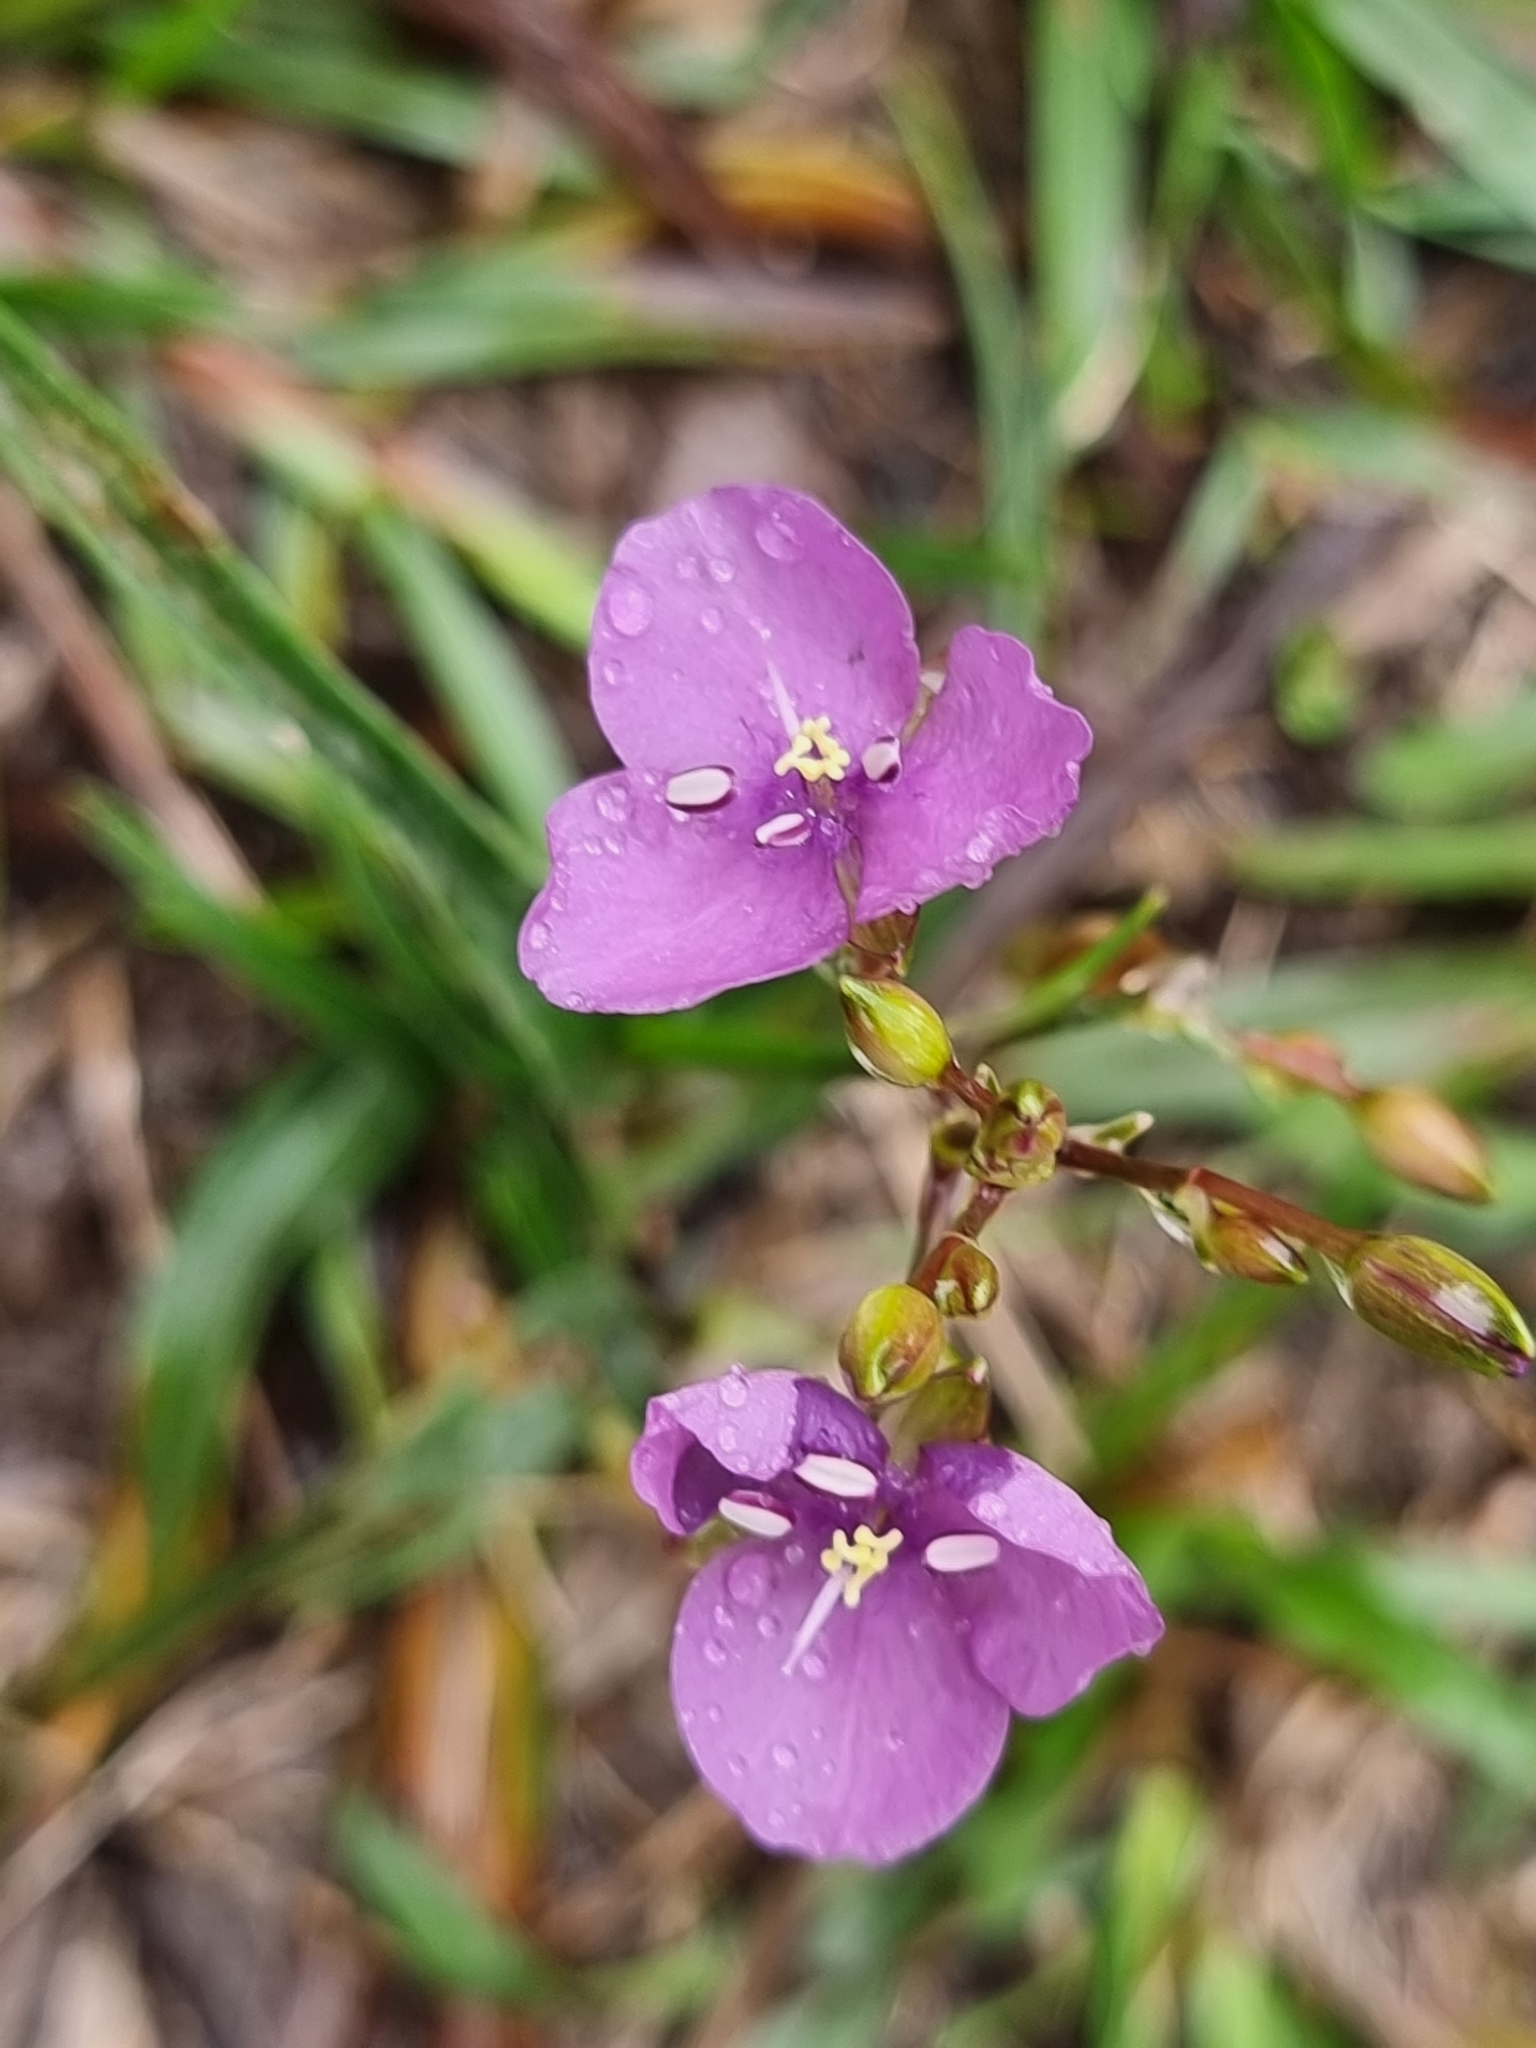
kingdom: Plantae
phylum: Tracheophyta
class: Liliopsida
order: Commelinales
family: Commelinaceae
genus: Murdannia
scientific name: Murdannia graminea
